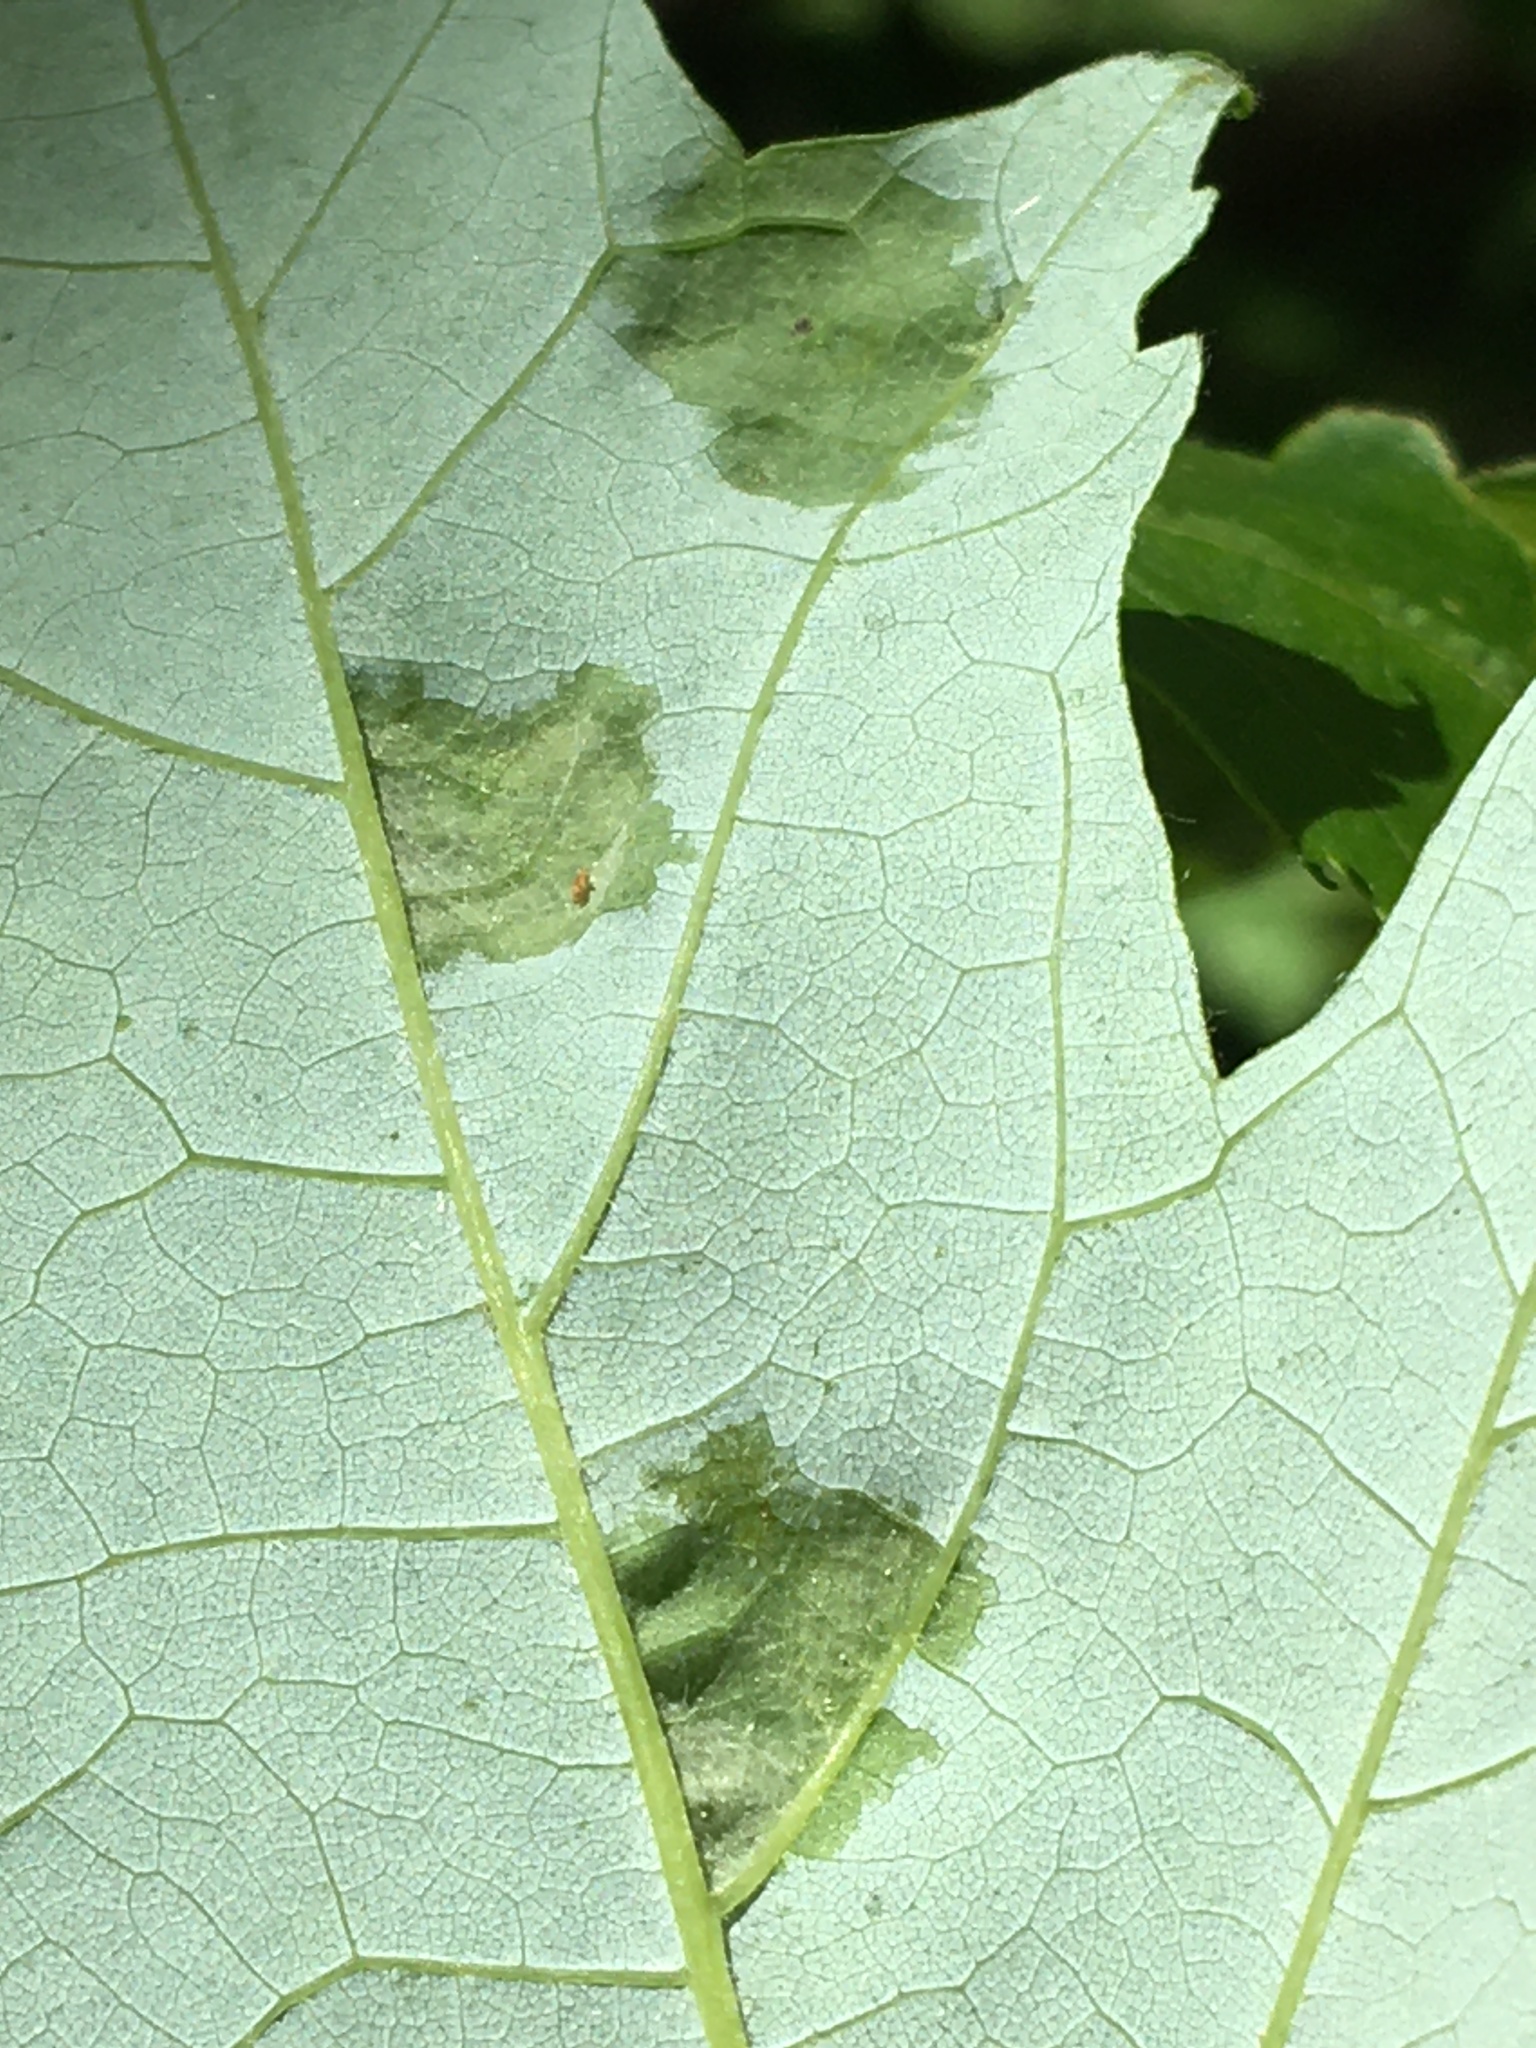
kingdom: Animalia
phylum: Arthropoda
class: Arachnida
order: Trombidiformes
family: Eriophyidae
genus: Vasates
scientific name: Vasates quadripedes
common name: Maple bladder gall mite
